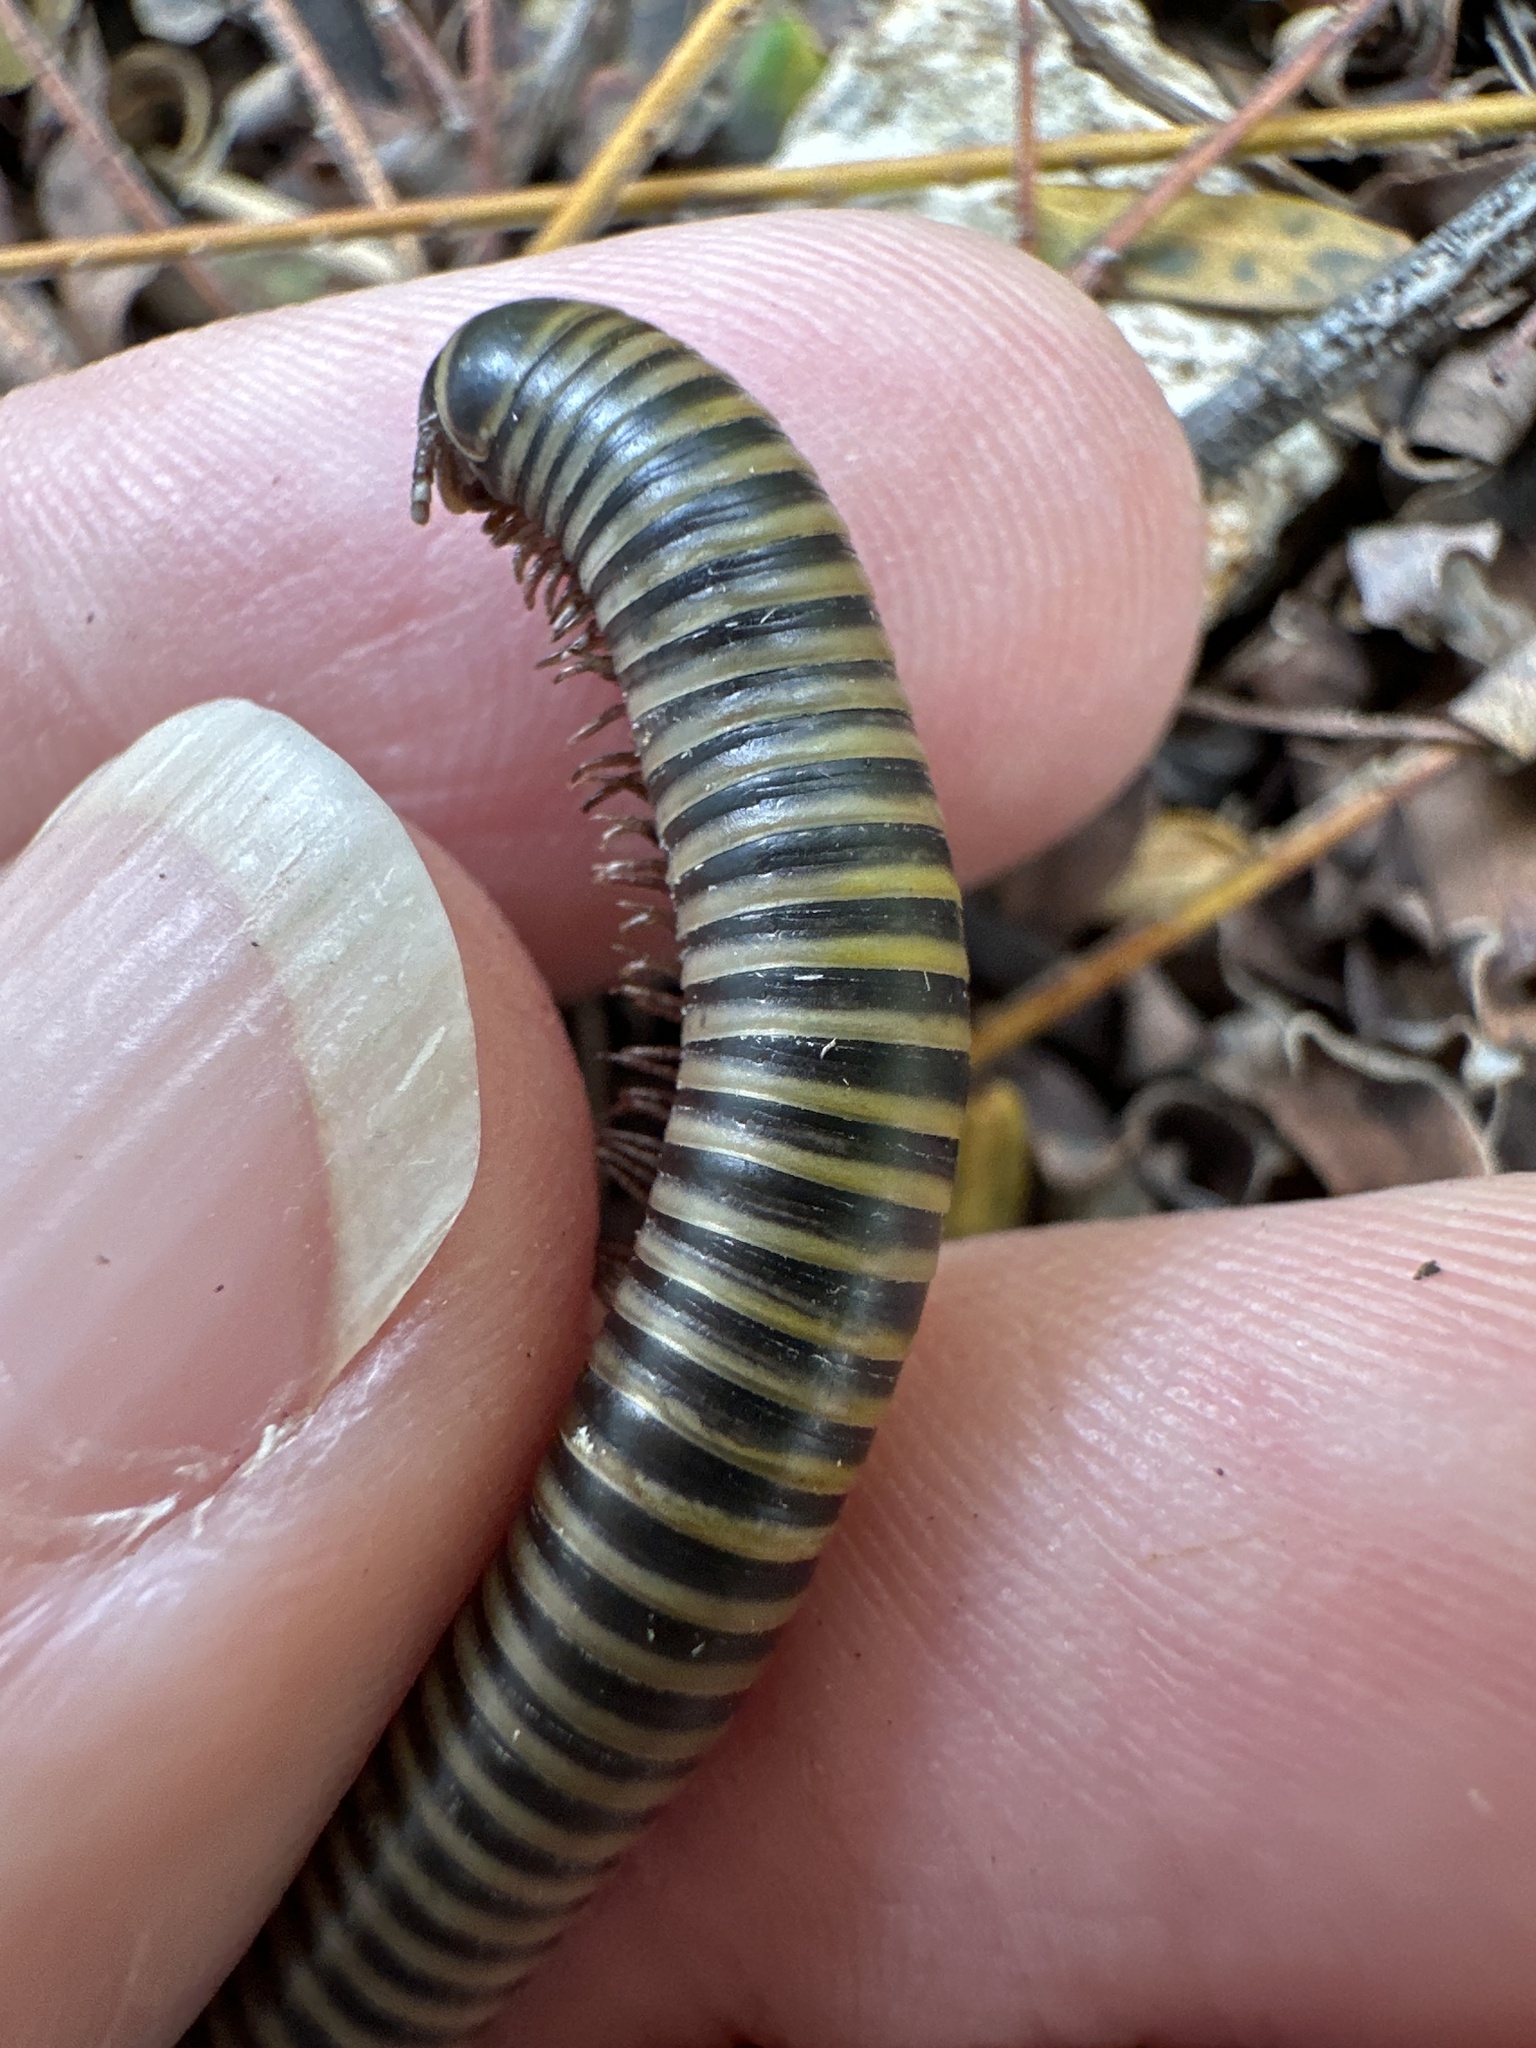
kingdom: Animalia
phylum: Arthropoda
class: Diplopoda
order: Spirobolida
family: Rhinocricidae
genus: Anadenobolus
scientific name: Anadenobolus monilicornis
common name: Caribbean millipede
